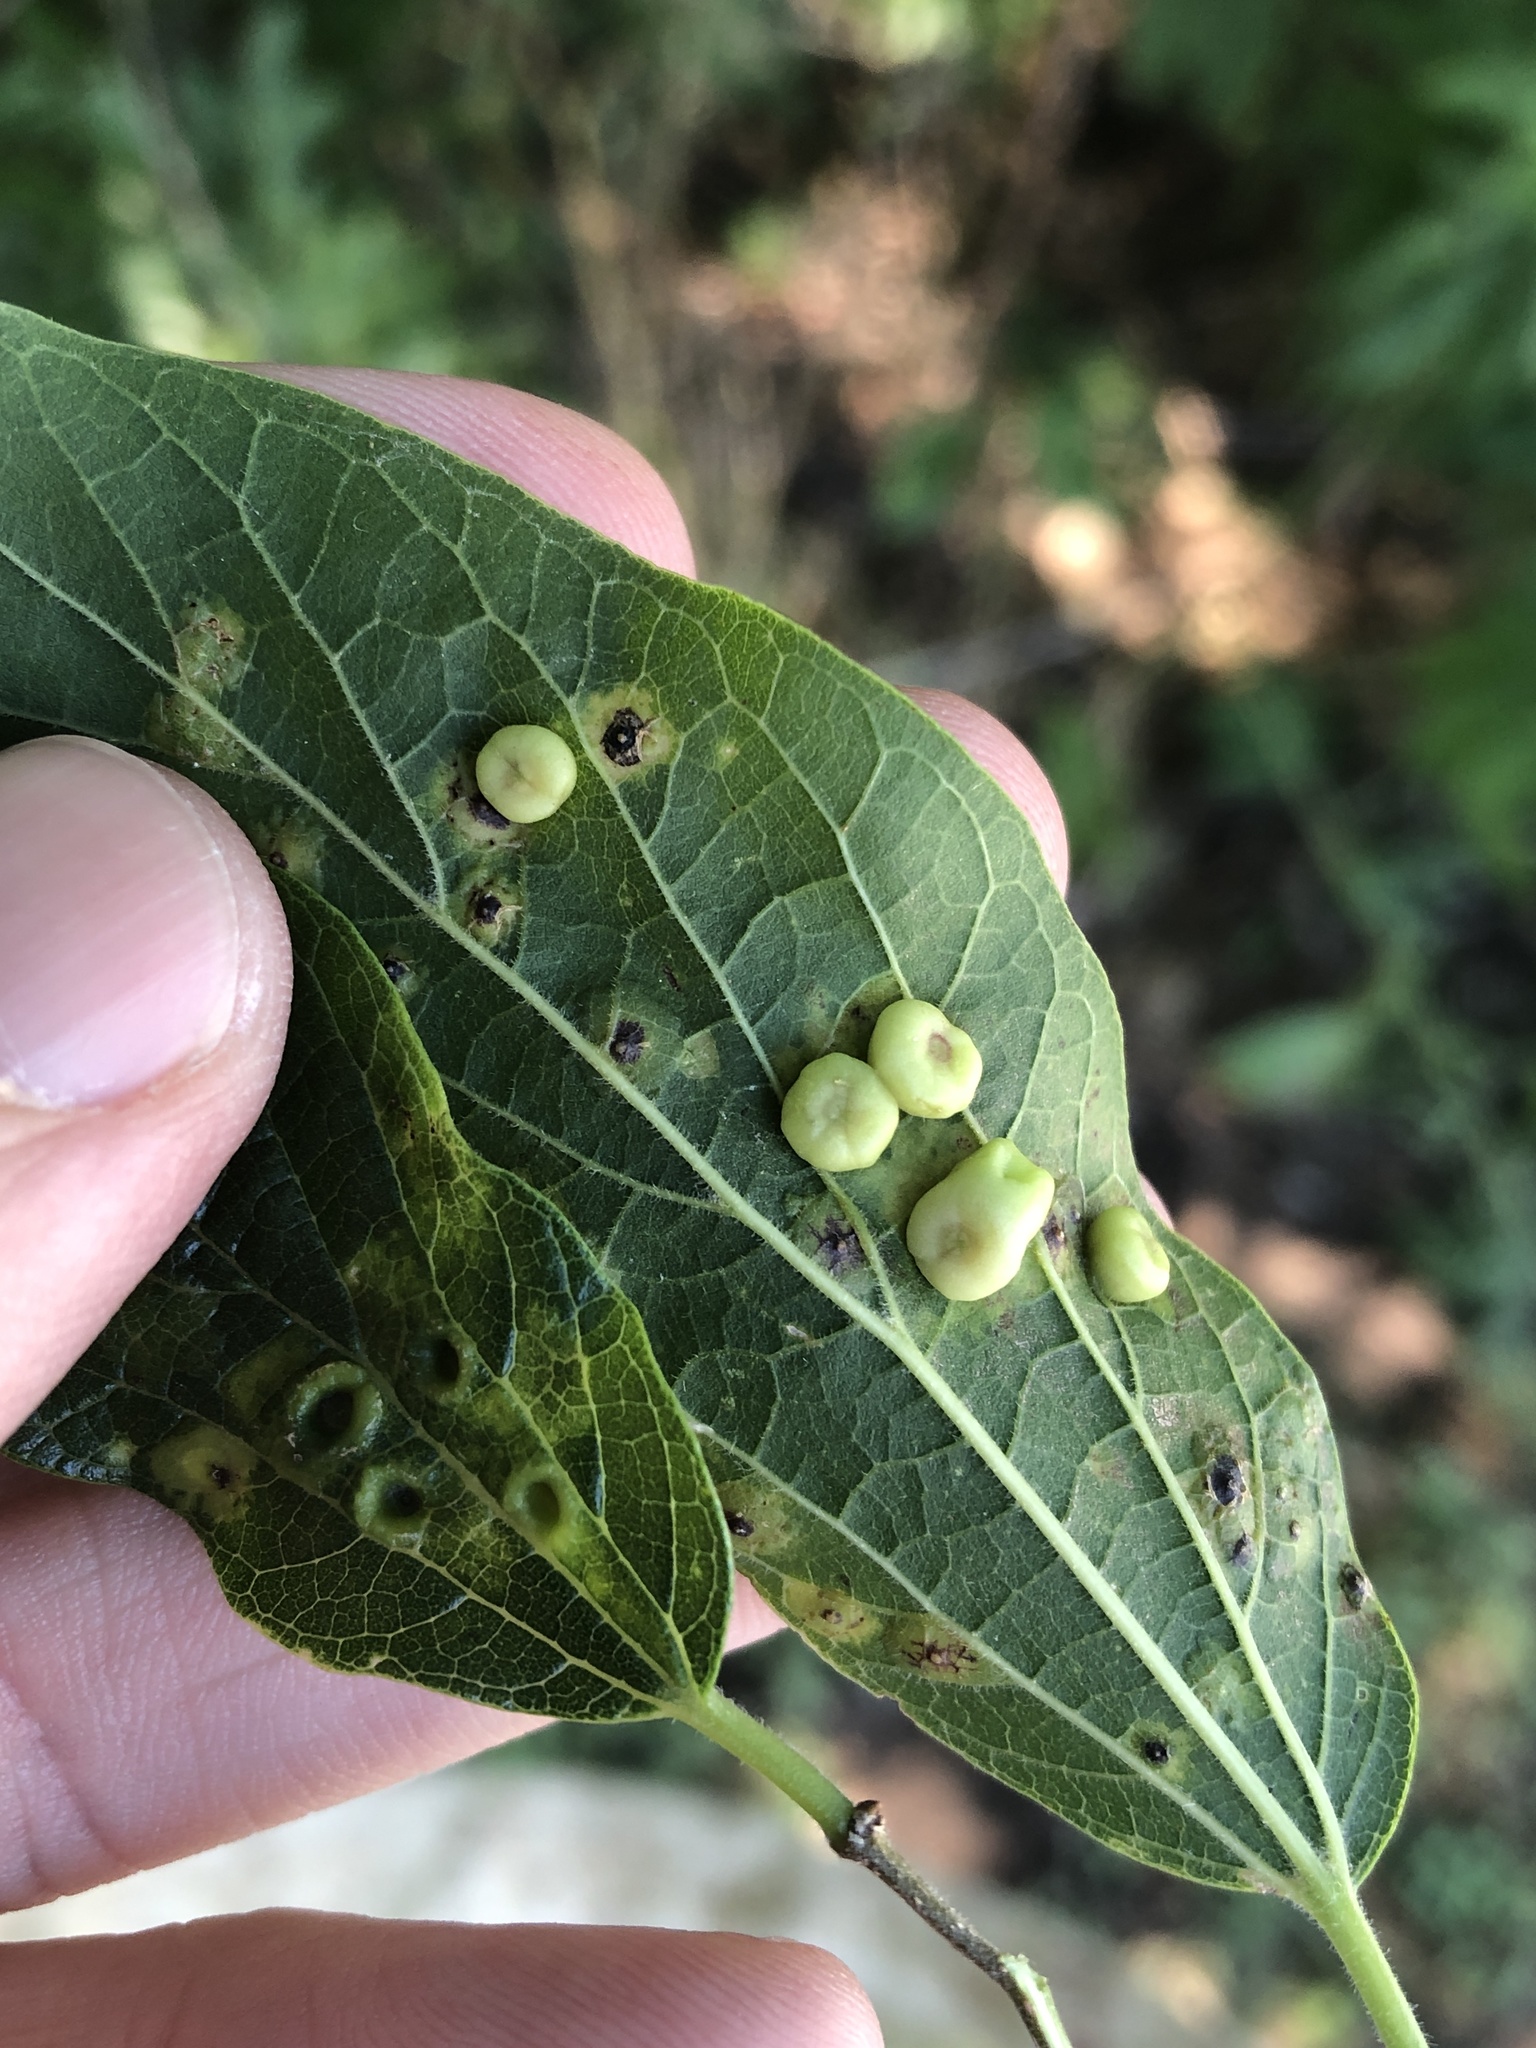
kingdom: Animalia
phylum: Arthropoda
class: Insecta
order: Hemiptera
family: Aphalaridae
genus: Pachypsylla
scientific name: Pachypsylla celtidismamma
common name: Hackberry nipplegall psyllid
